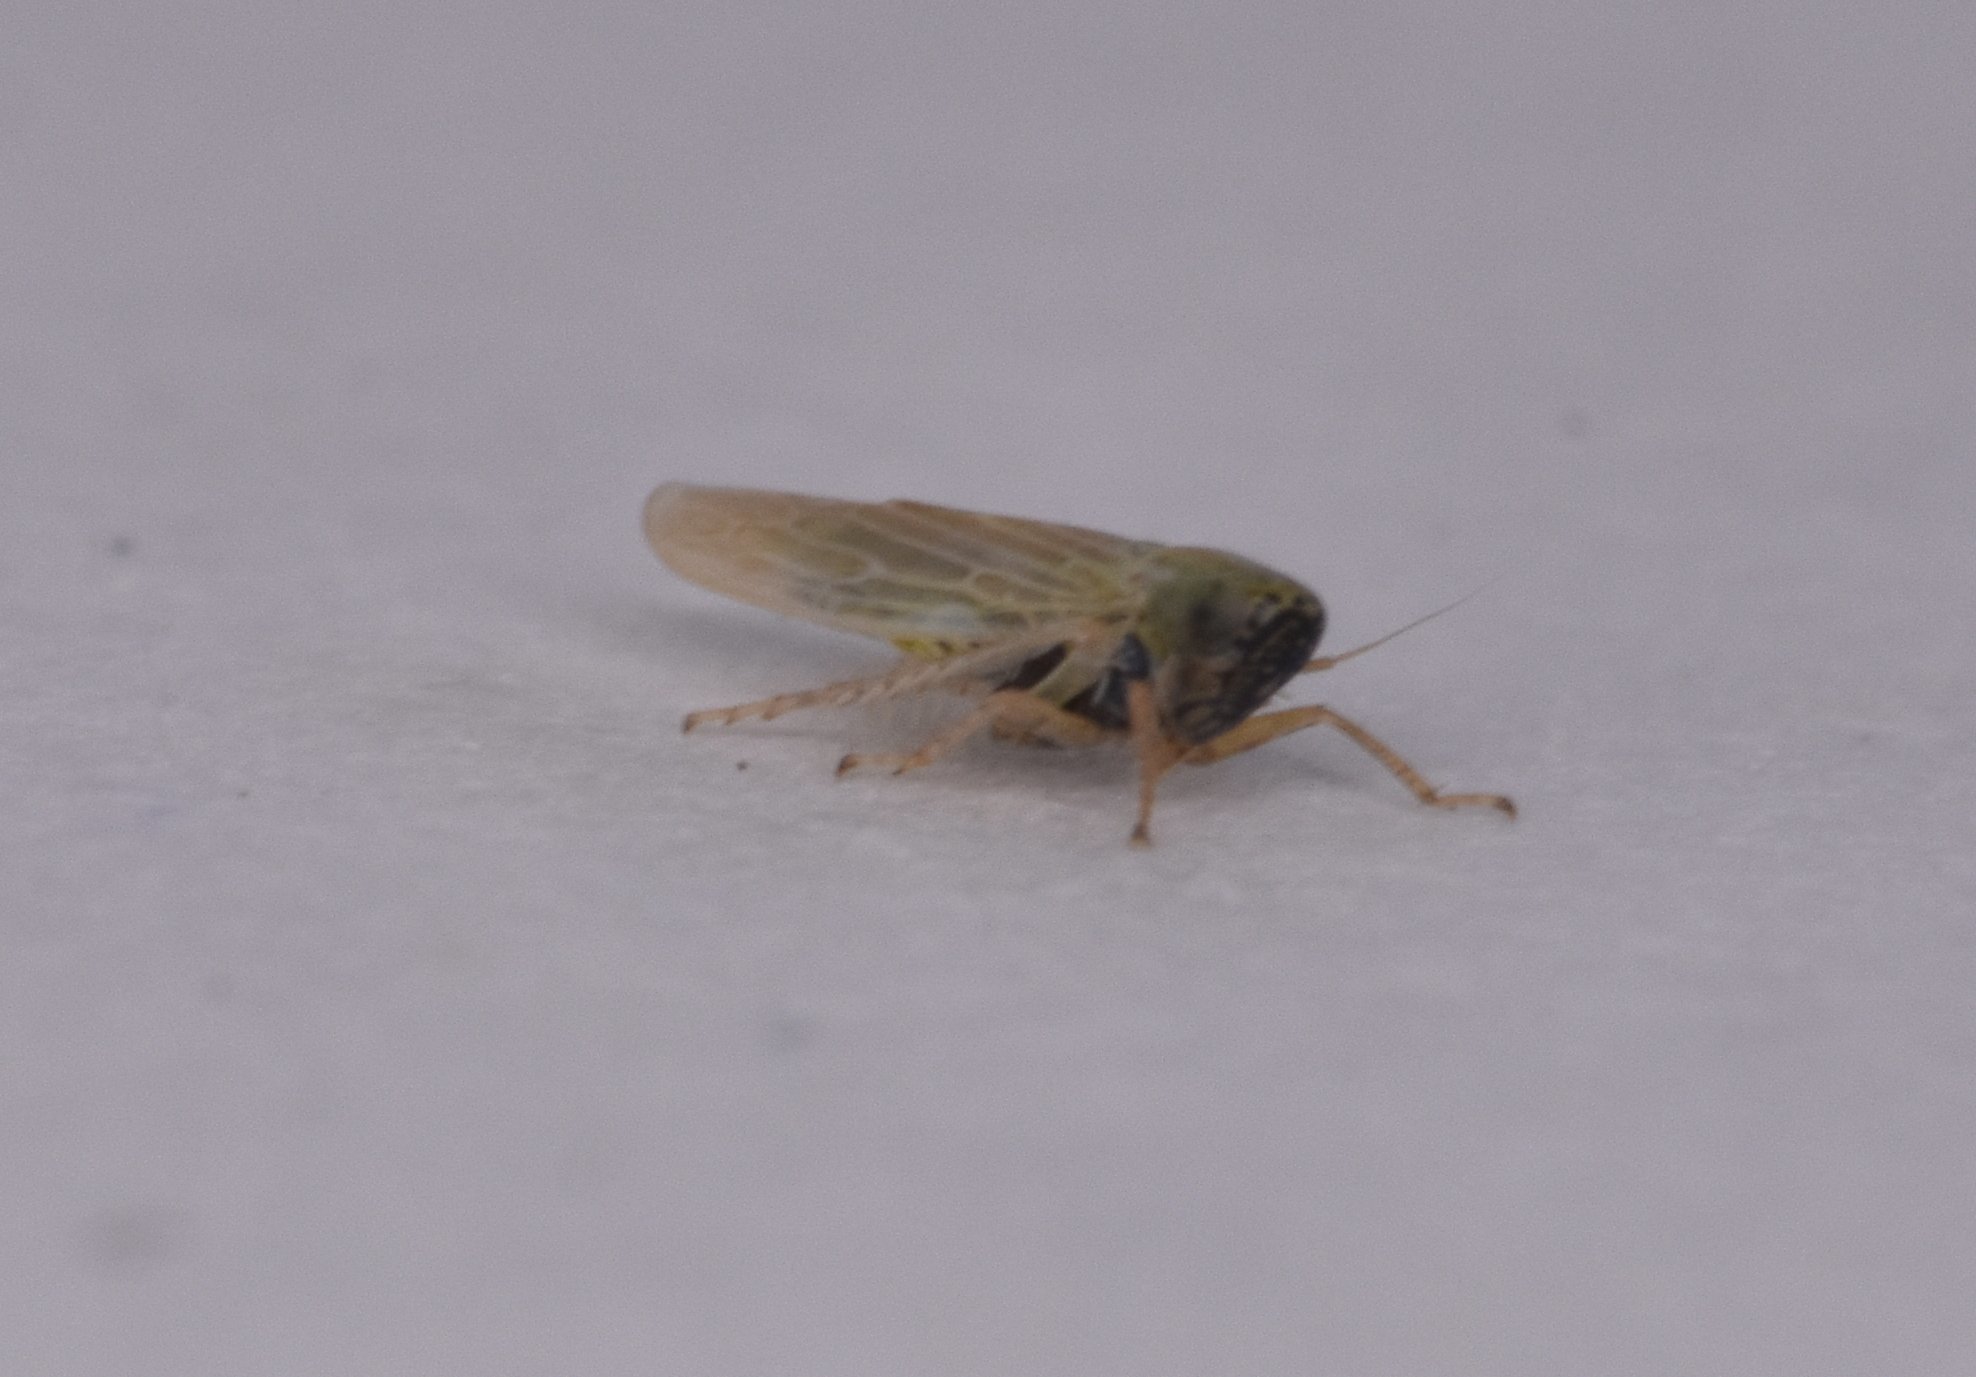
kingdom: Animalia
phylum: Arthropoda
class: Insecta
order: Hemiptera
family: Cicadellidae
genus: Graminella
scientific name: Graminella nigrifrons
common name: Blackfaced leafhopper
